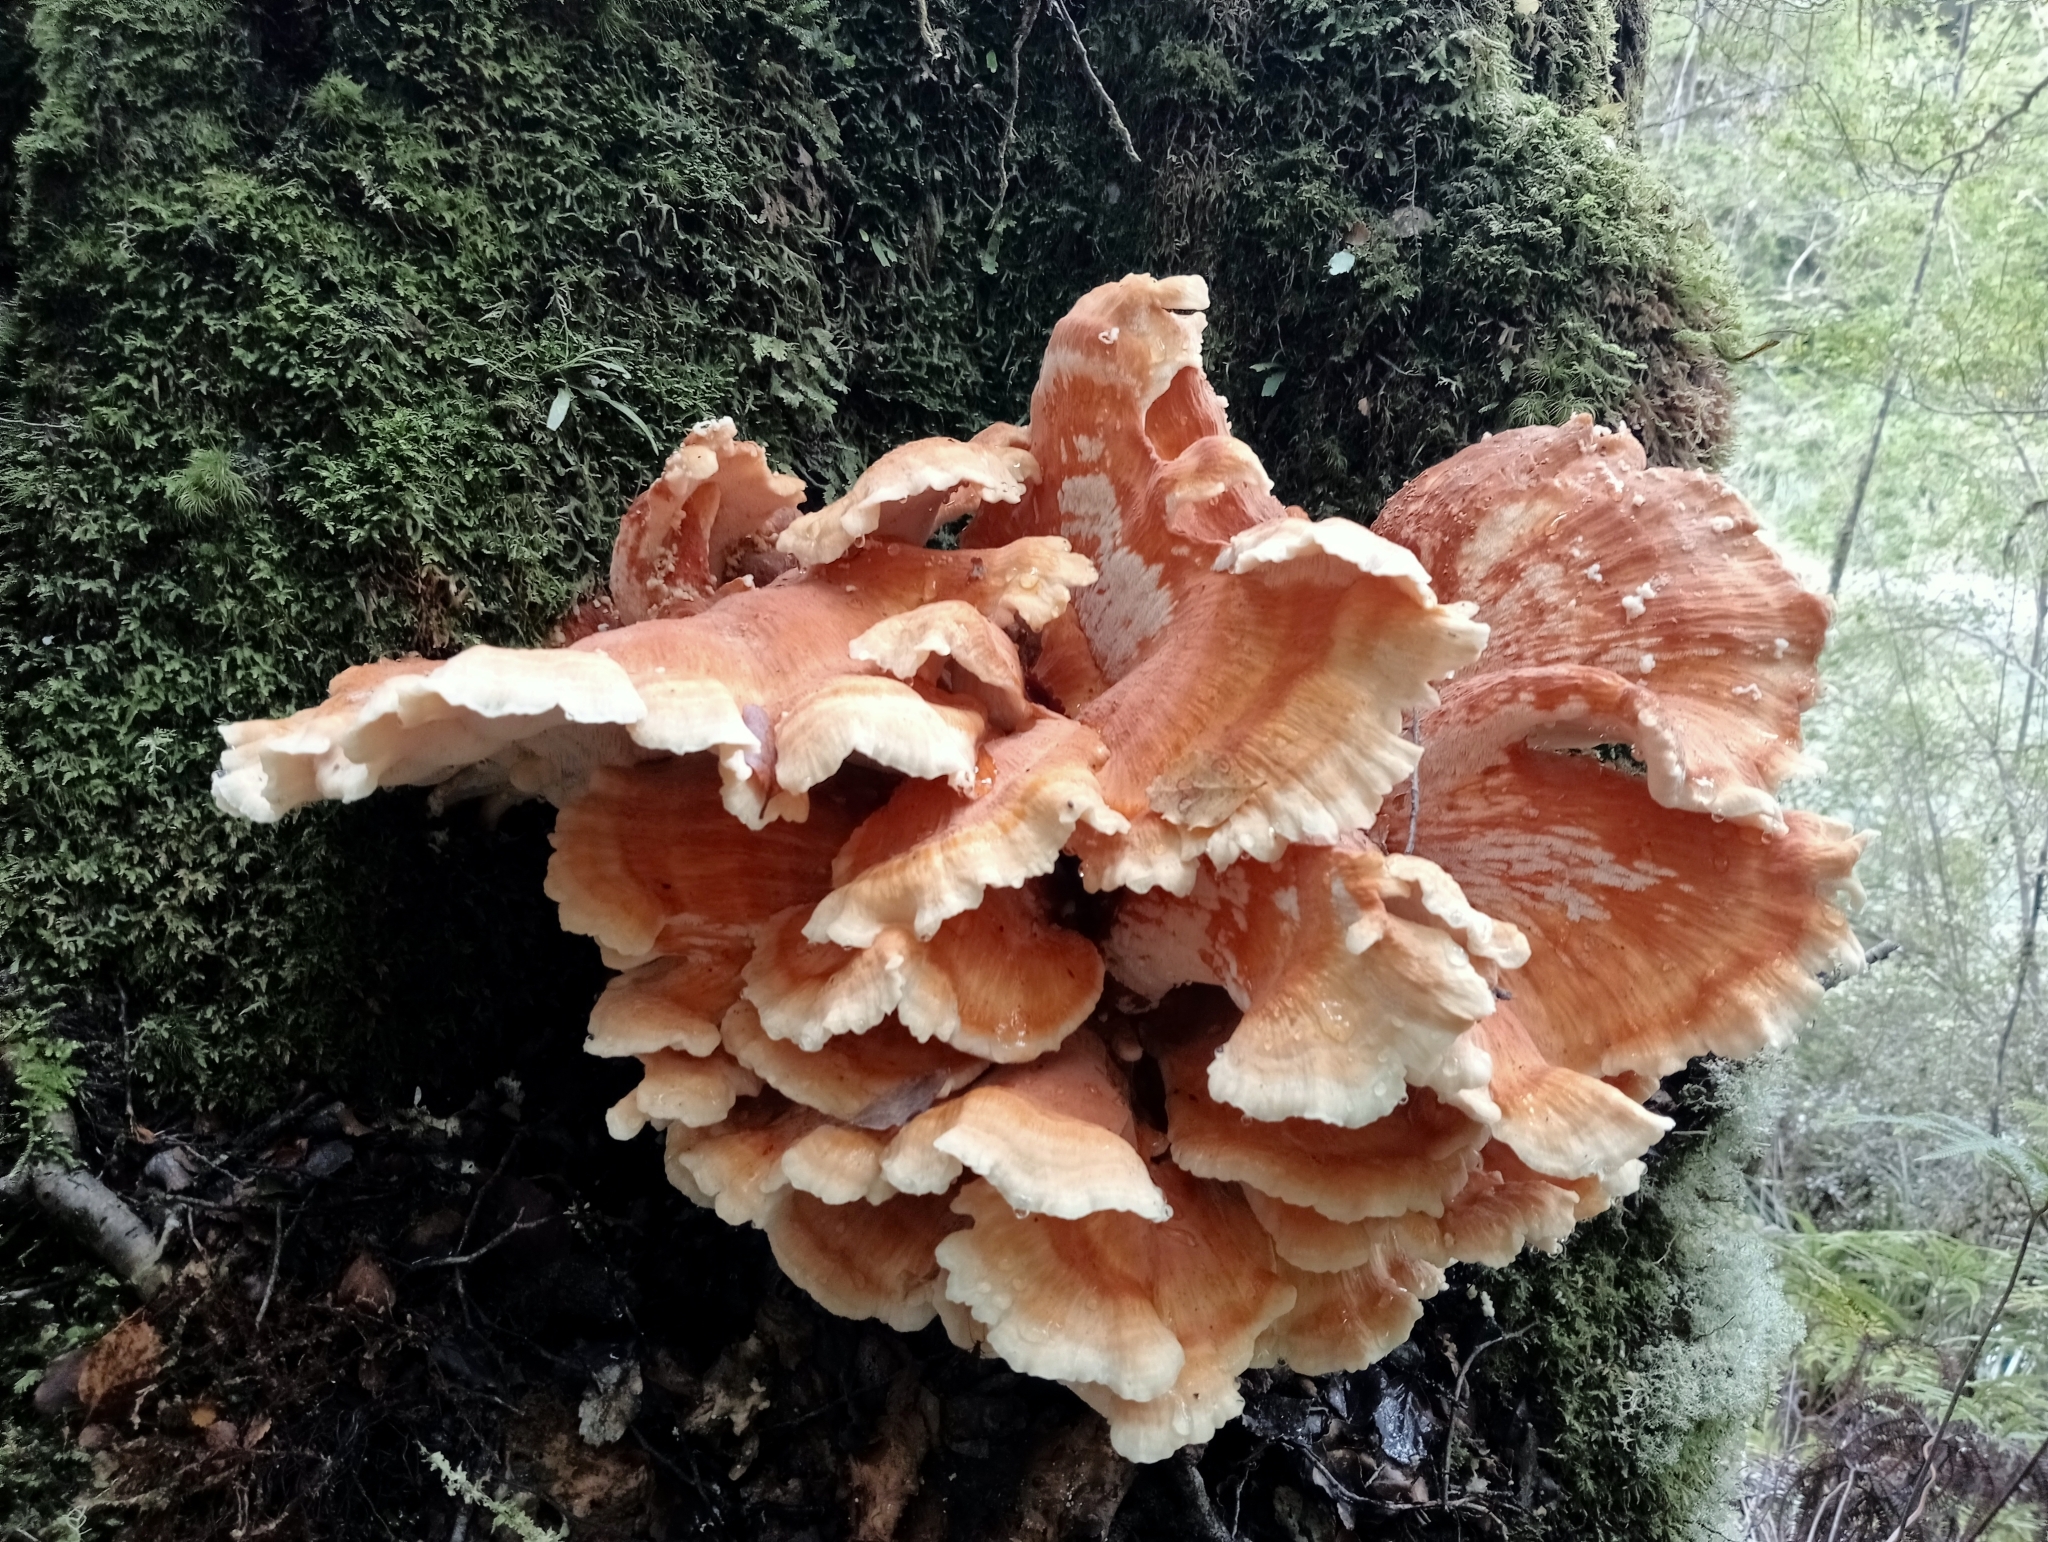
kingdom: Fungi
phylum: Basidiomycota
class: Agaricomycetes
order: Russulales
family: Bondarzewiaceae
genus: Bondarzewia
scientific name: Bondarzewia kirkii
